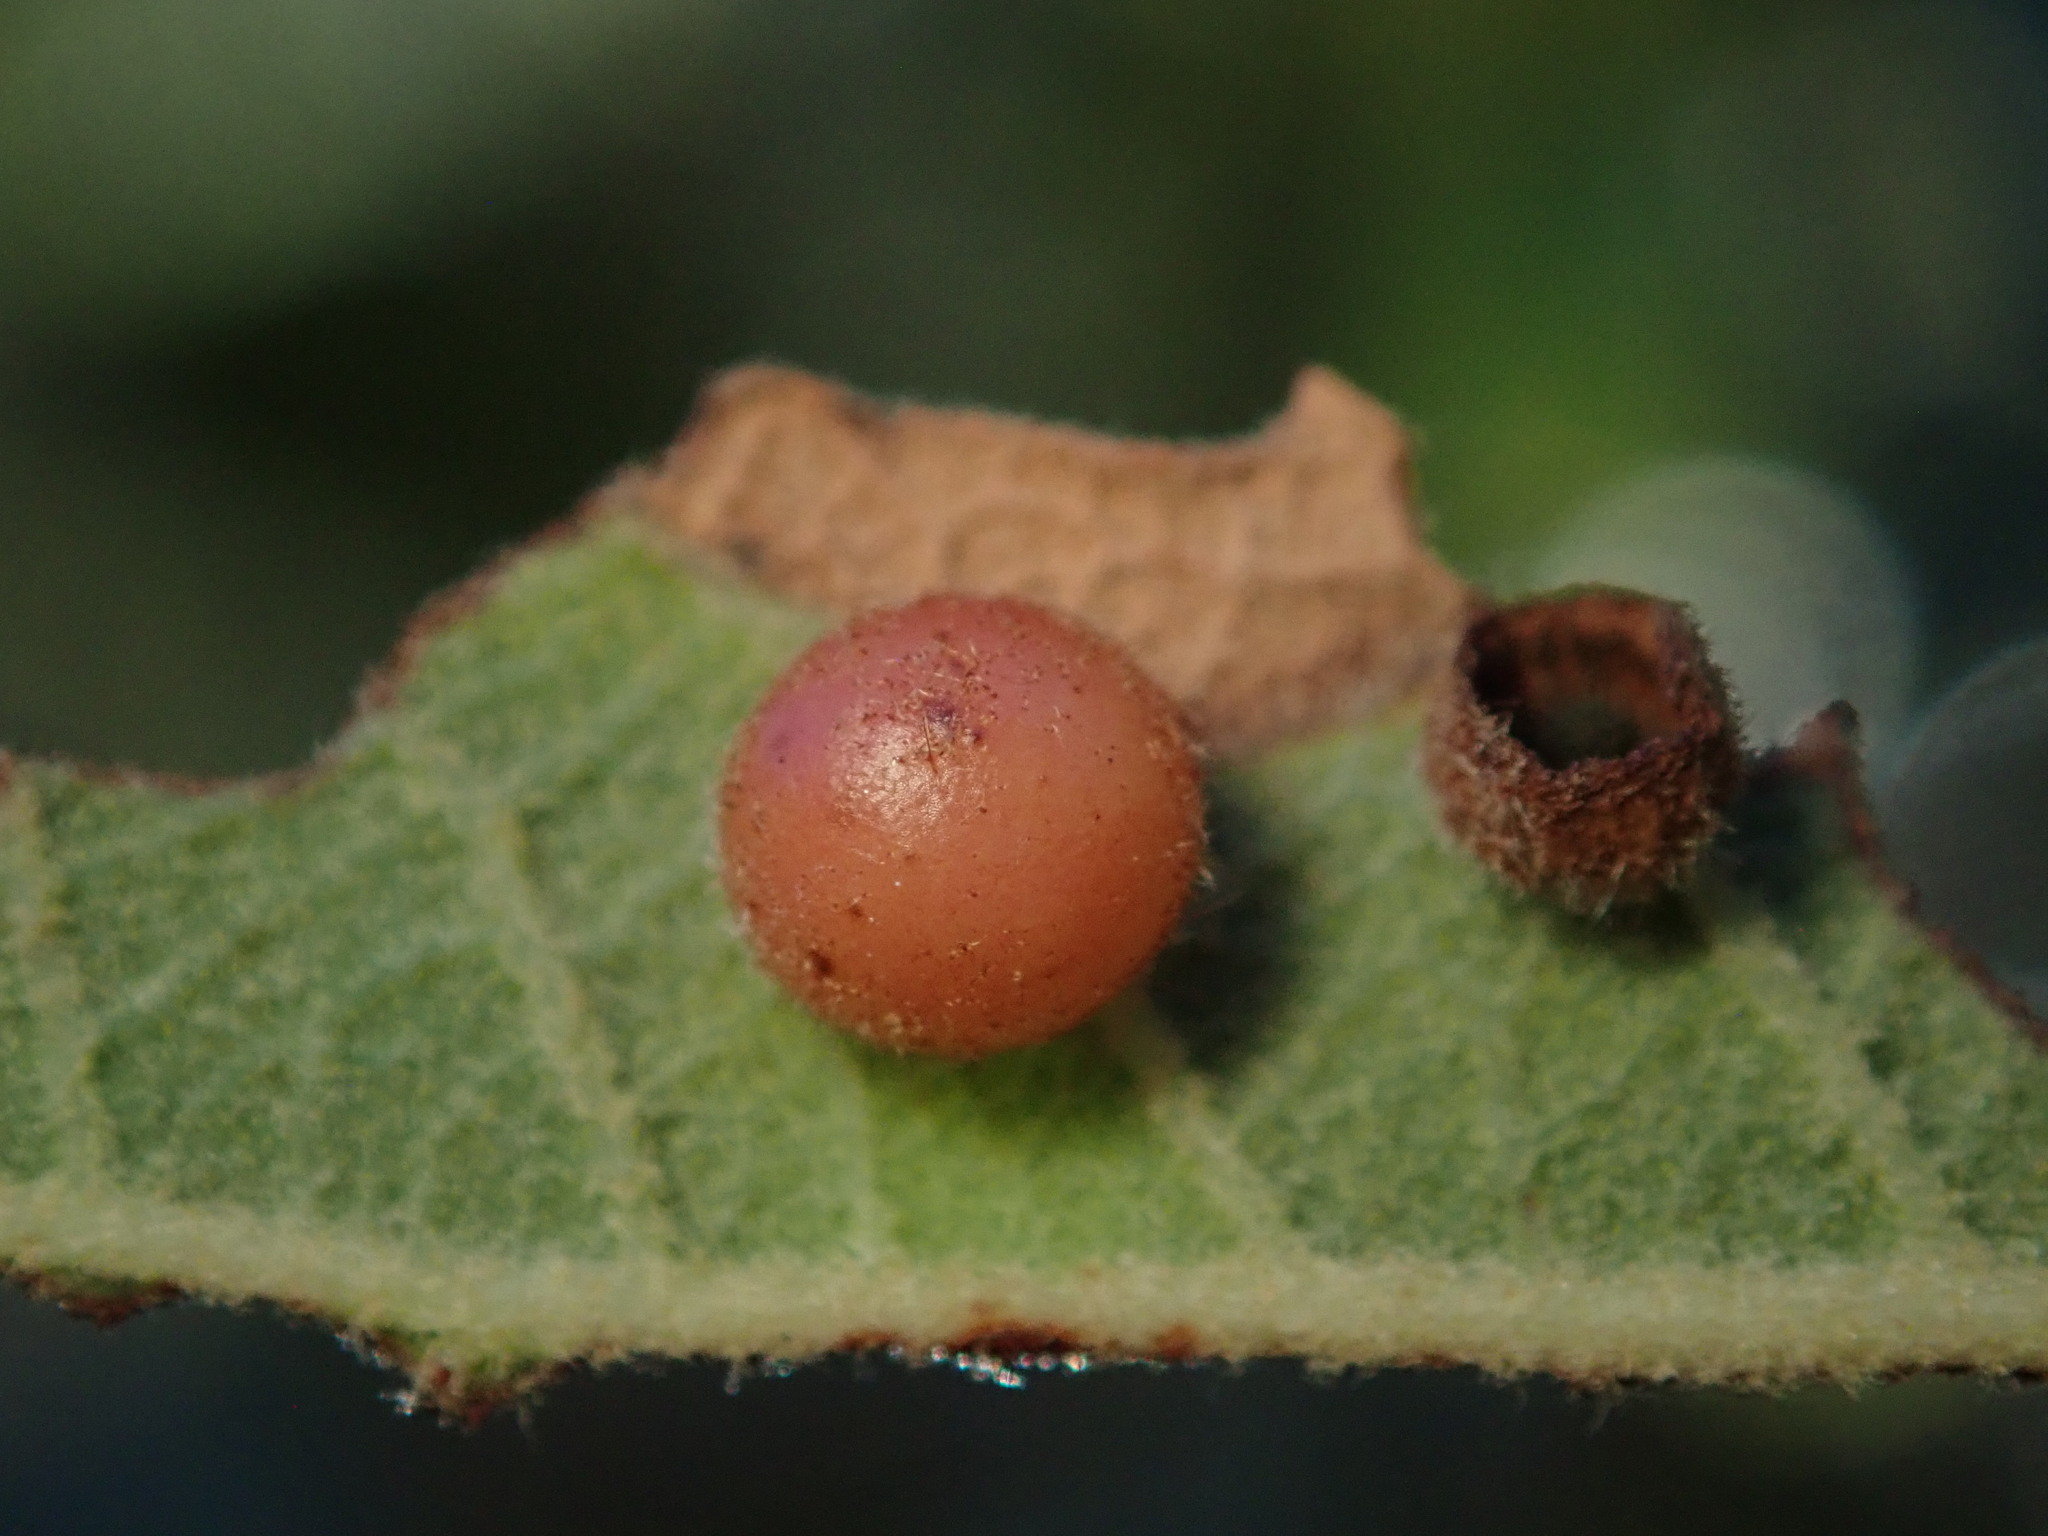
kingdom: Animalia
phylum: Arthropoda
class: Insecta
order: Hymenoptera
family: Cynipidae
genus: Biorhiza
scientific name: Biorhiza
